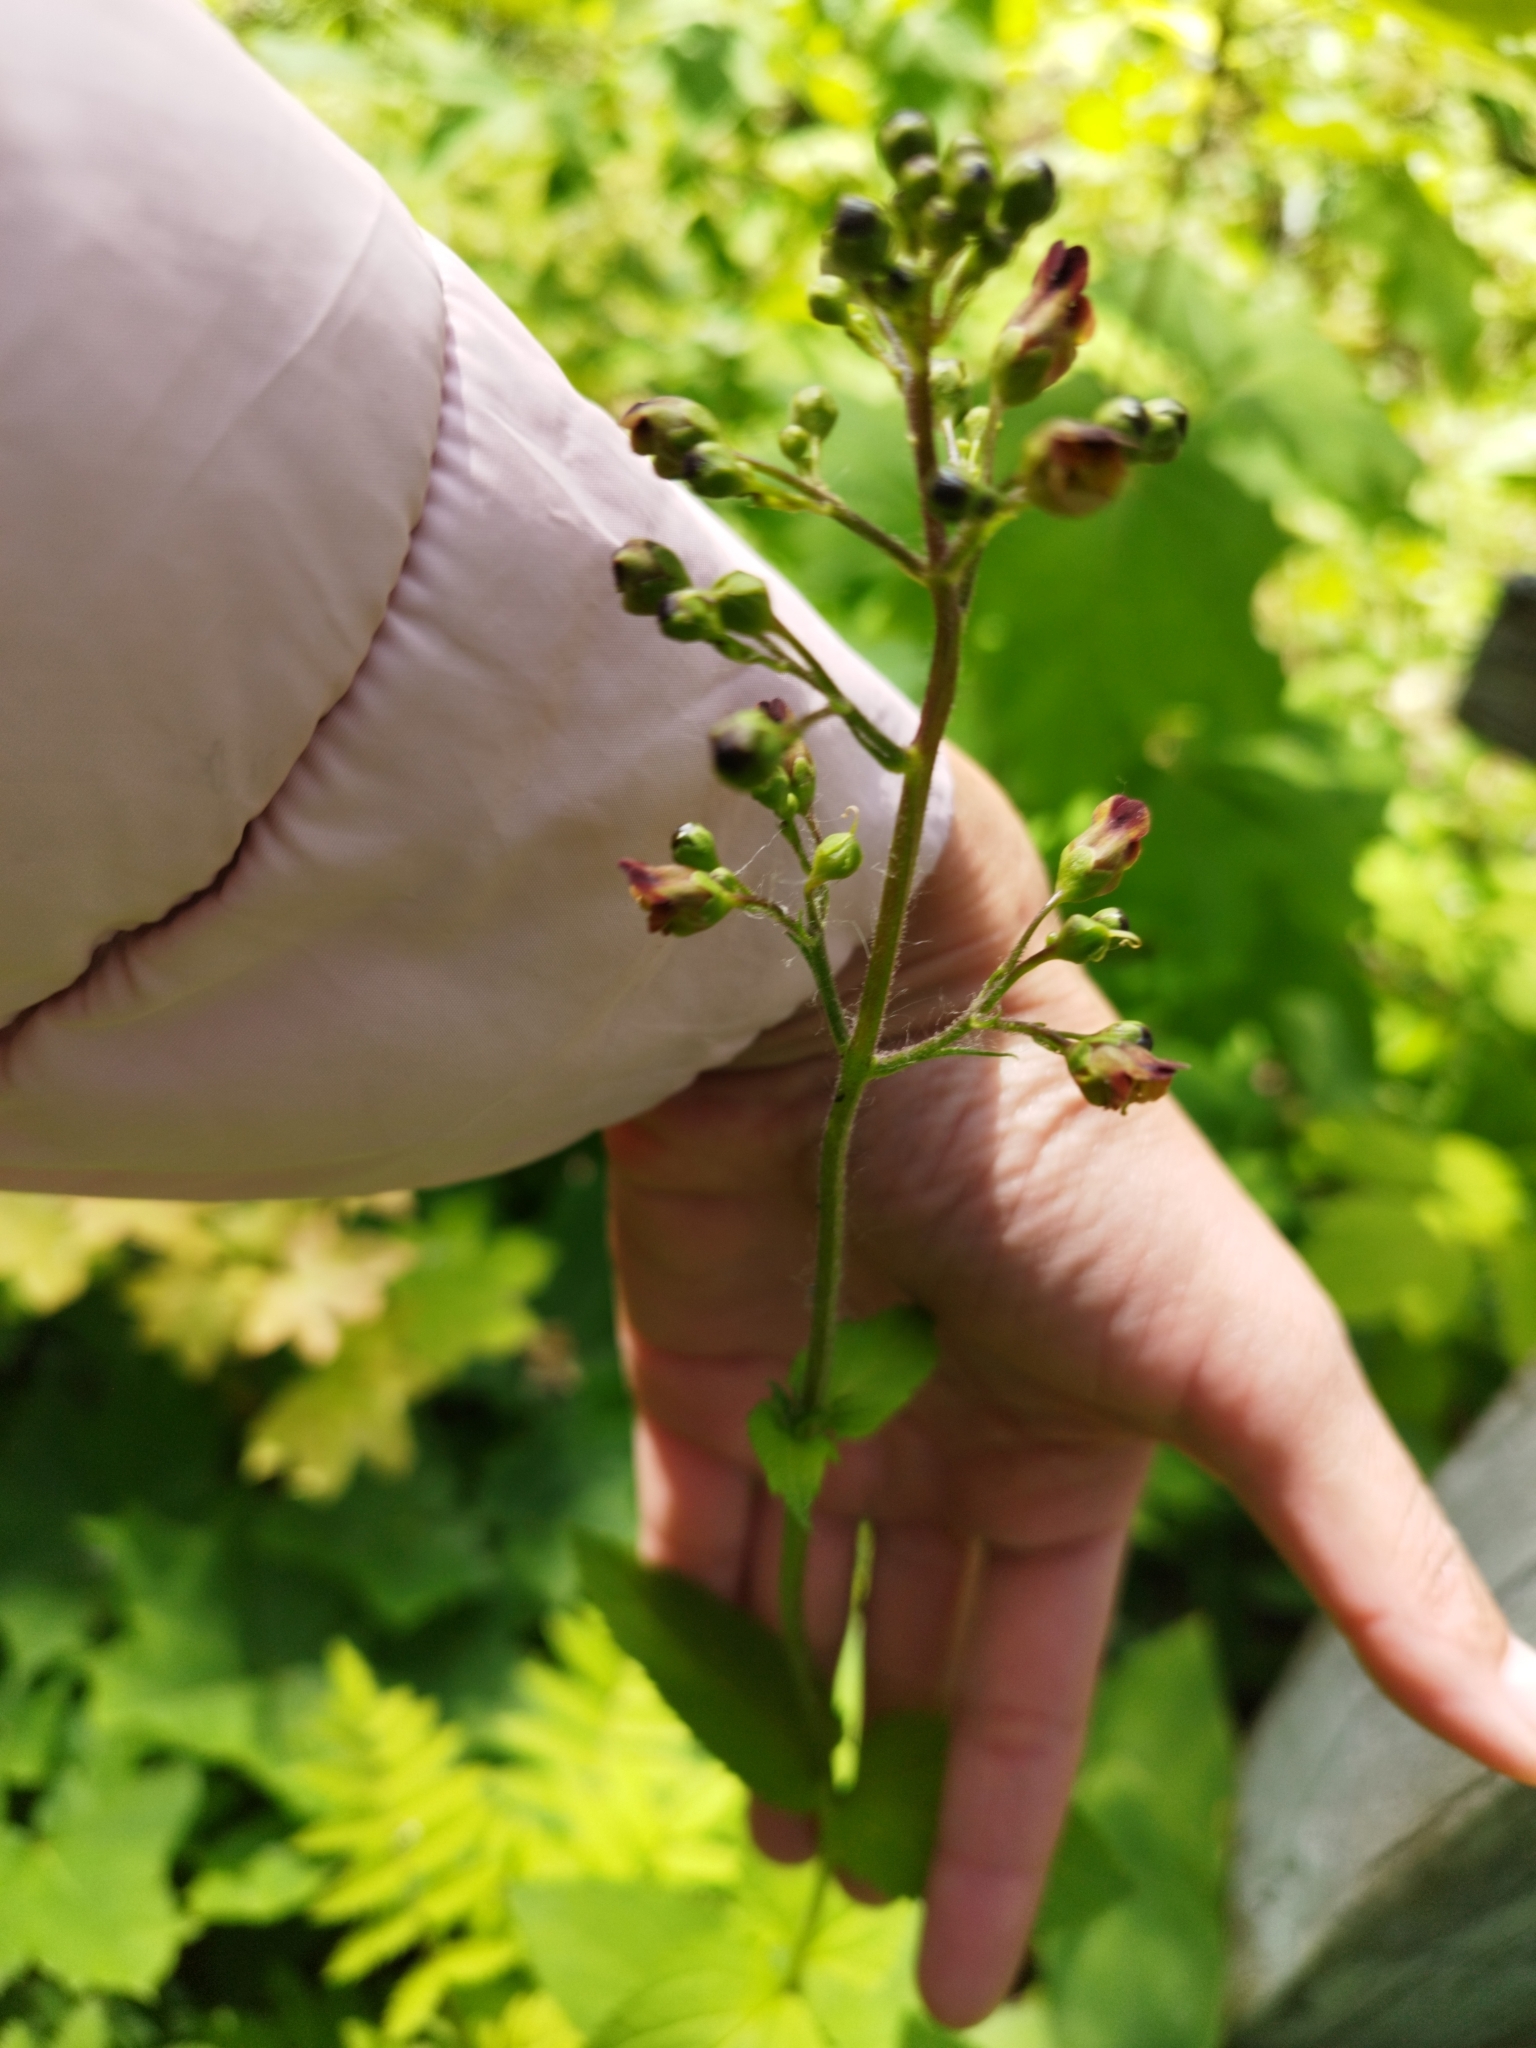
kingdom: Plantae
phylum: Tracheophyta
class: Magnoliopsida
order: Lamiales
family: Scrophulariaceae
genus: Scrophularia
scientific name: Scrophularia nodosa
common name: Common figwort
